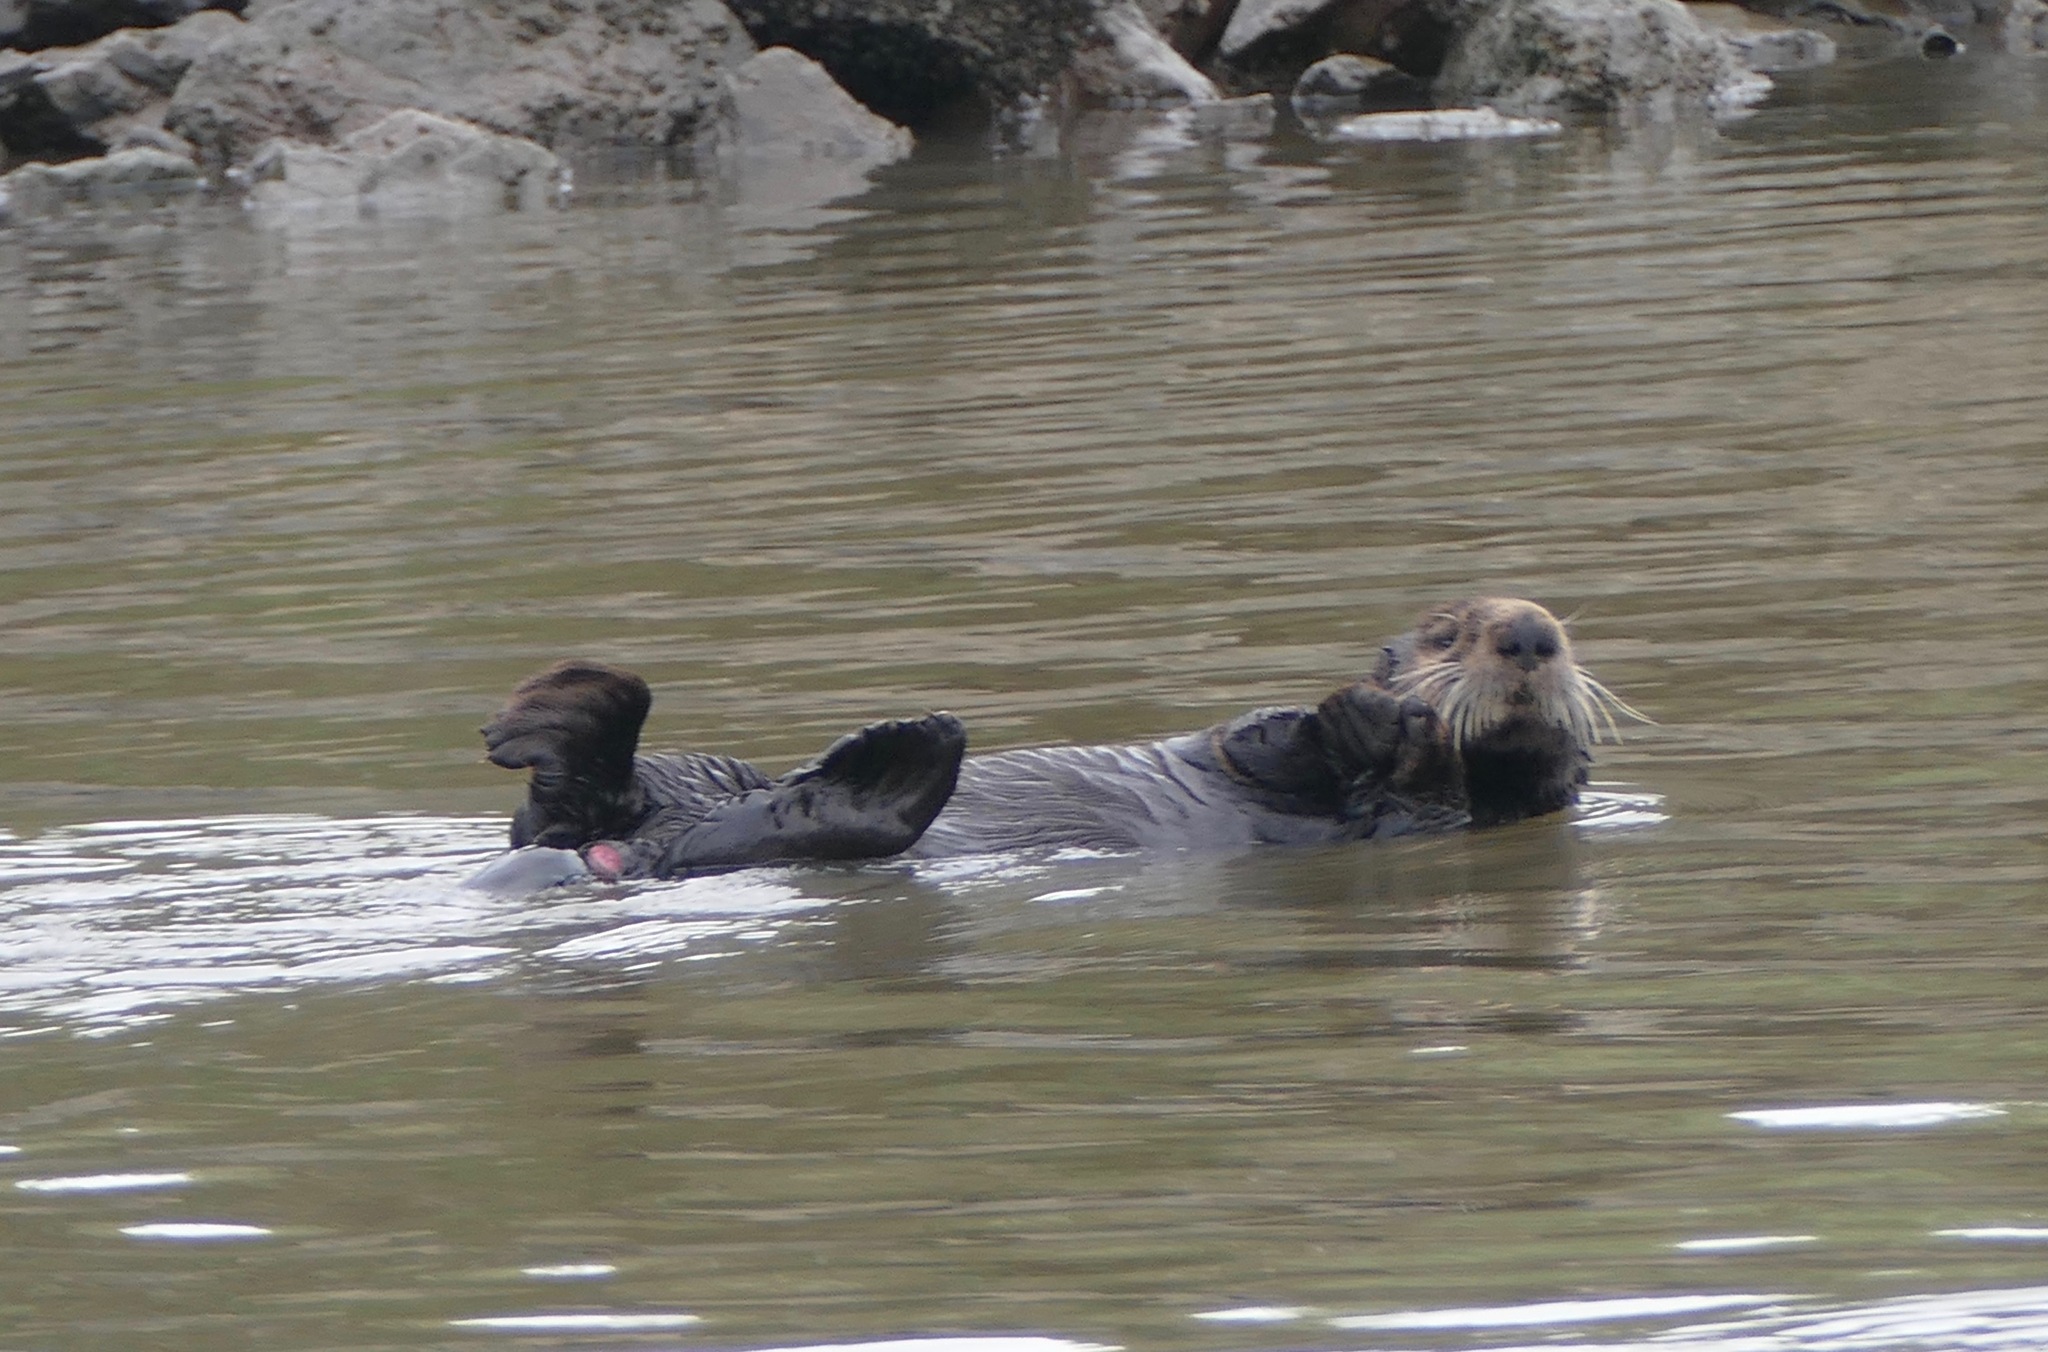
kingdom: Animalia
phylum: Chordata
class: Mammalia
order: Carnivora
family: Mustelidae
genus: Enhydra
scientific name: Enhydra lutris
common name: Sea otter
